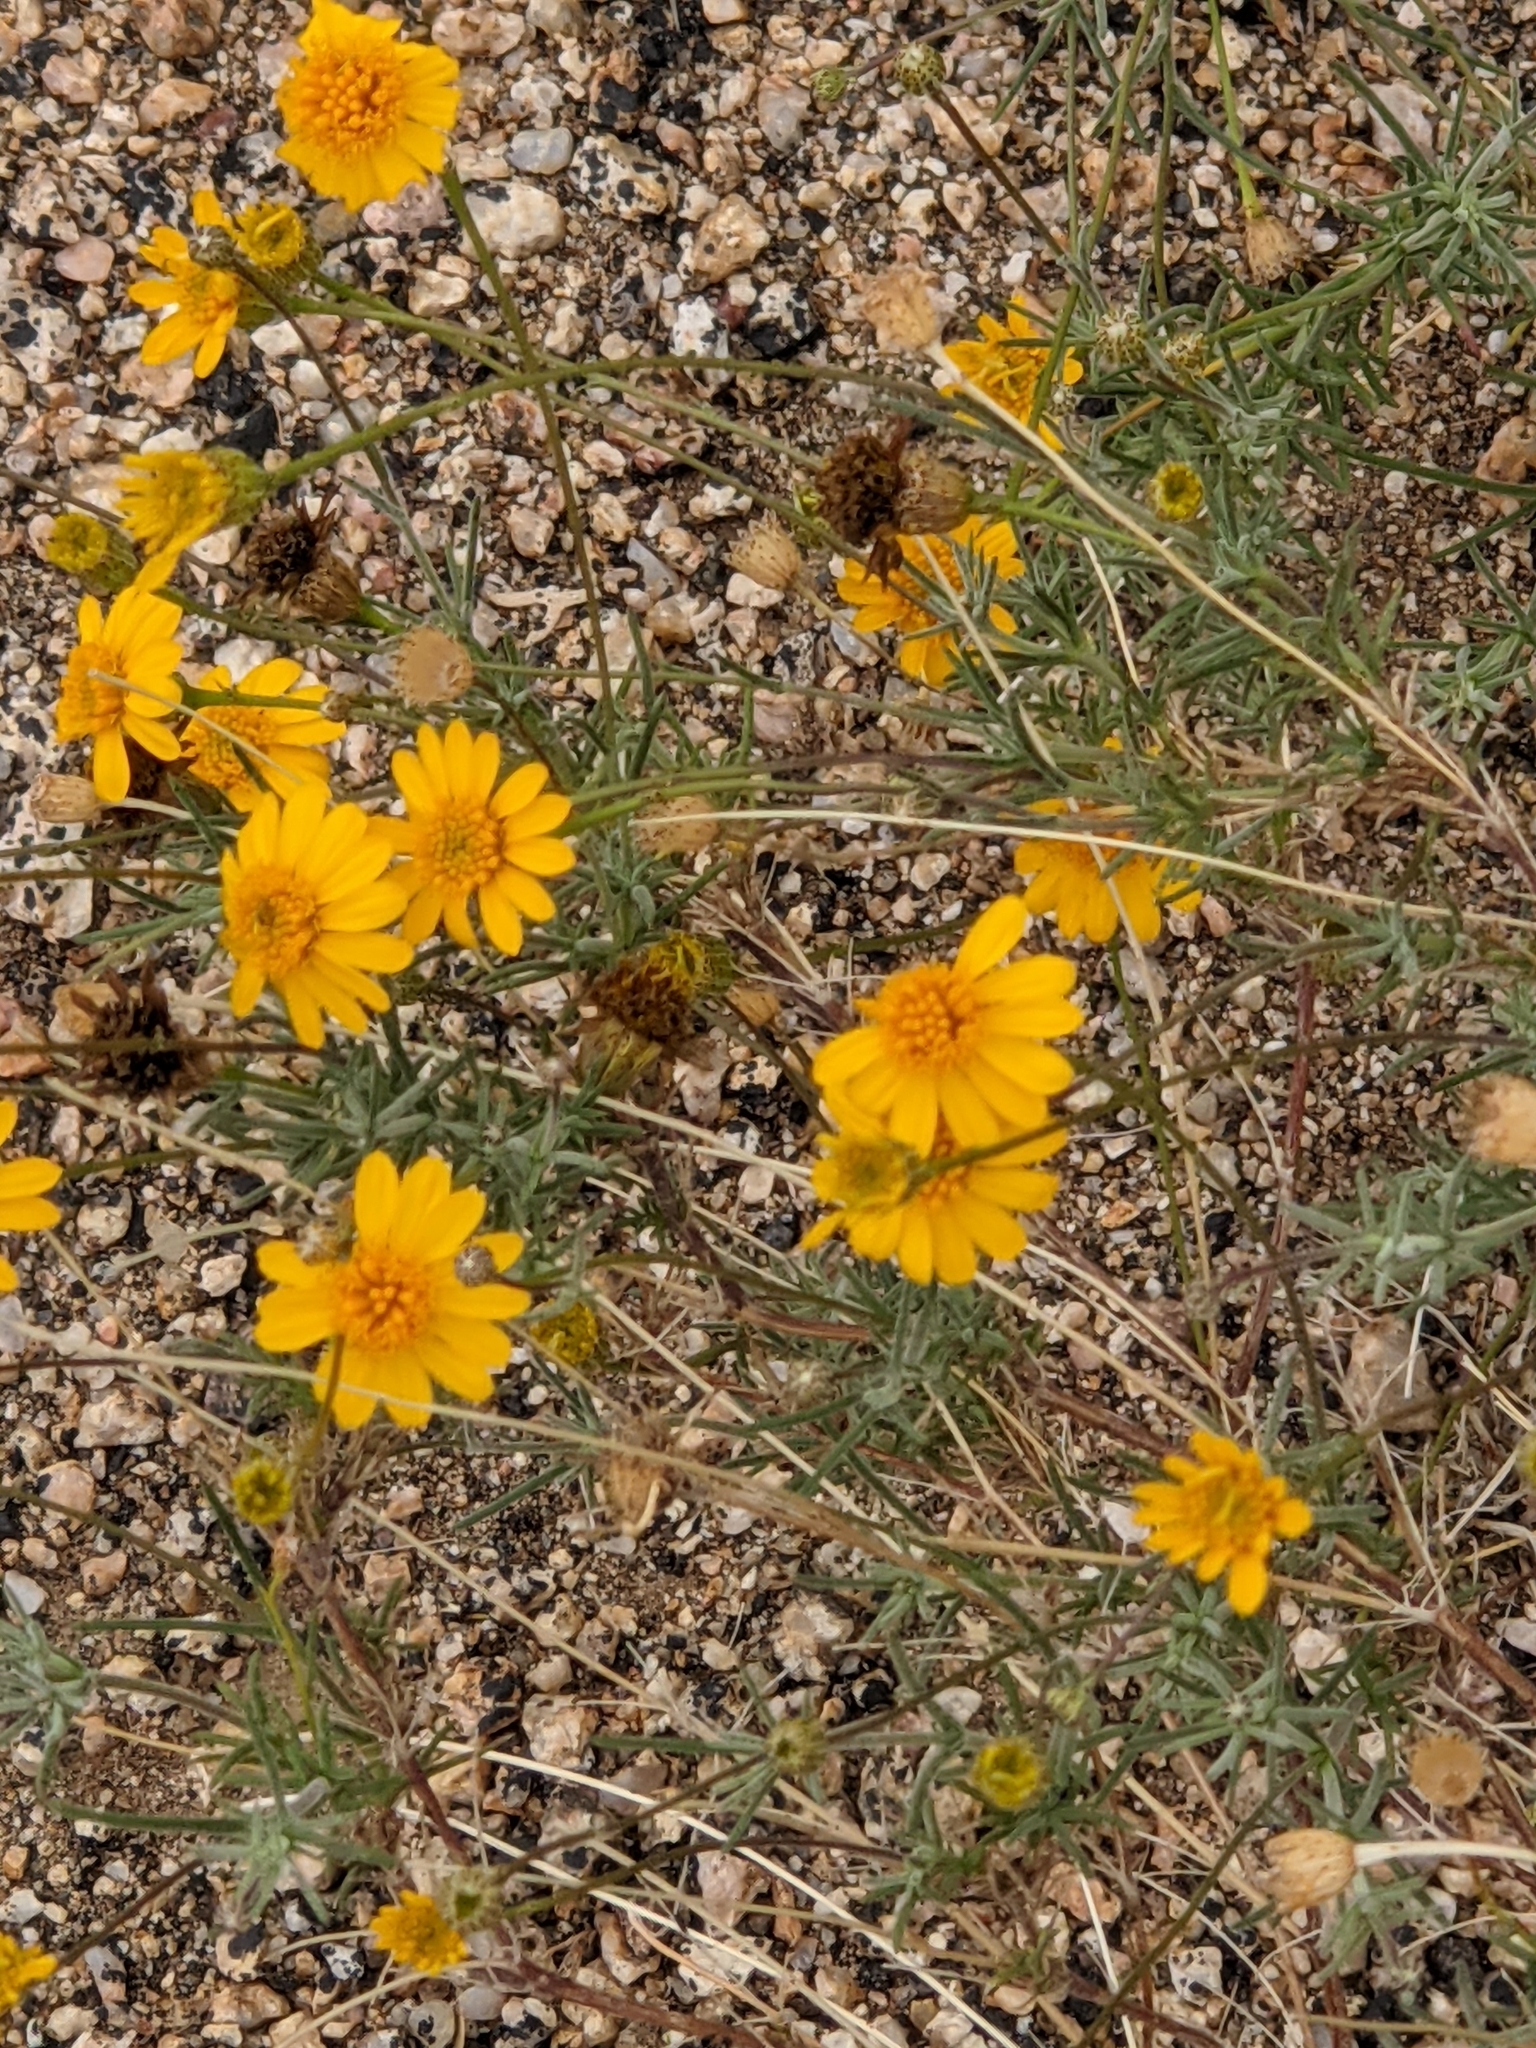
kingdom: Plantae
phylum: Tracheophyta
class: Magnoliopsida
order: Asterales
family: Asteraceae
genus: Thymophylla
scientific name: Thymophylla pentachaeta
